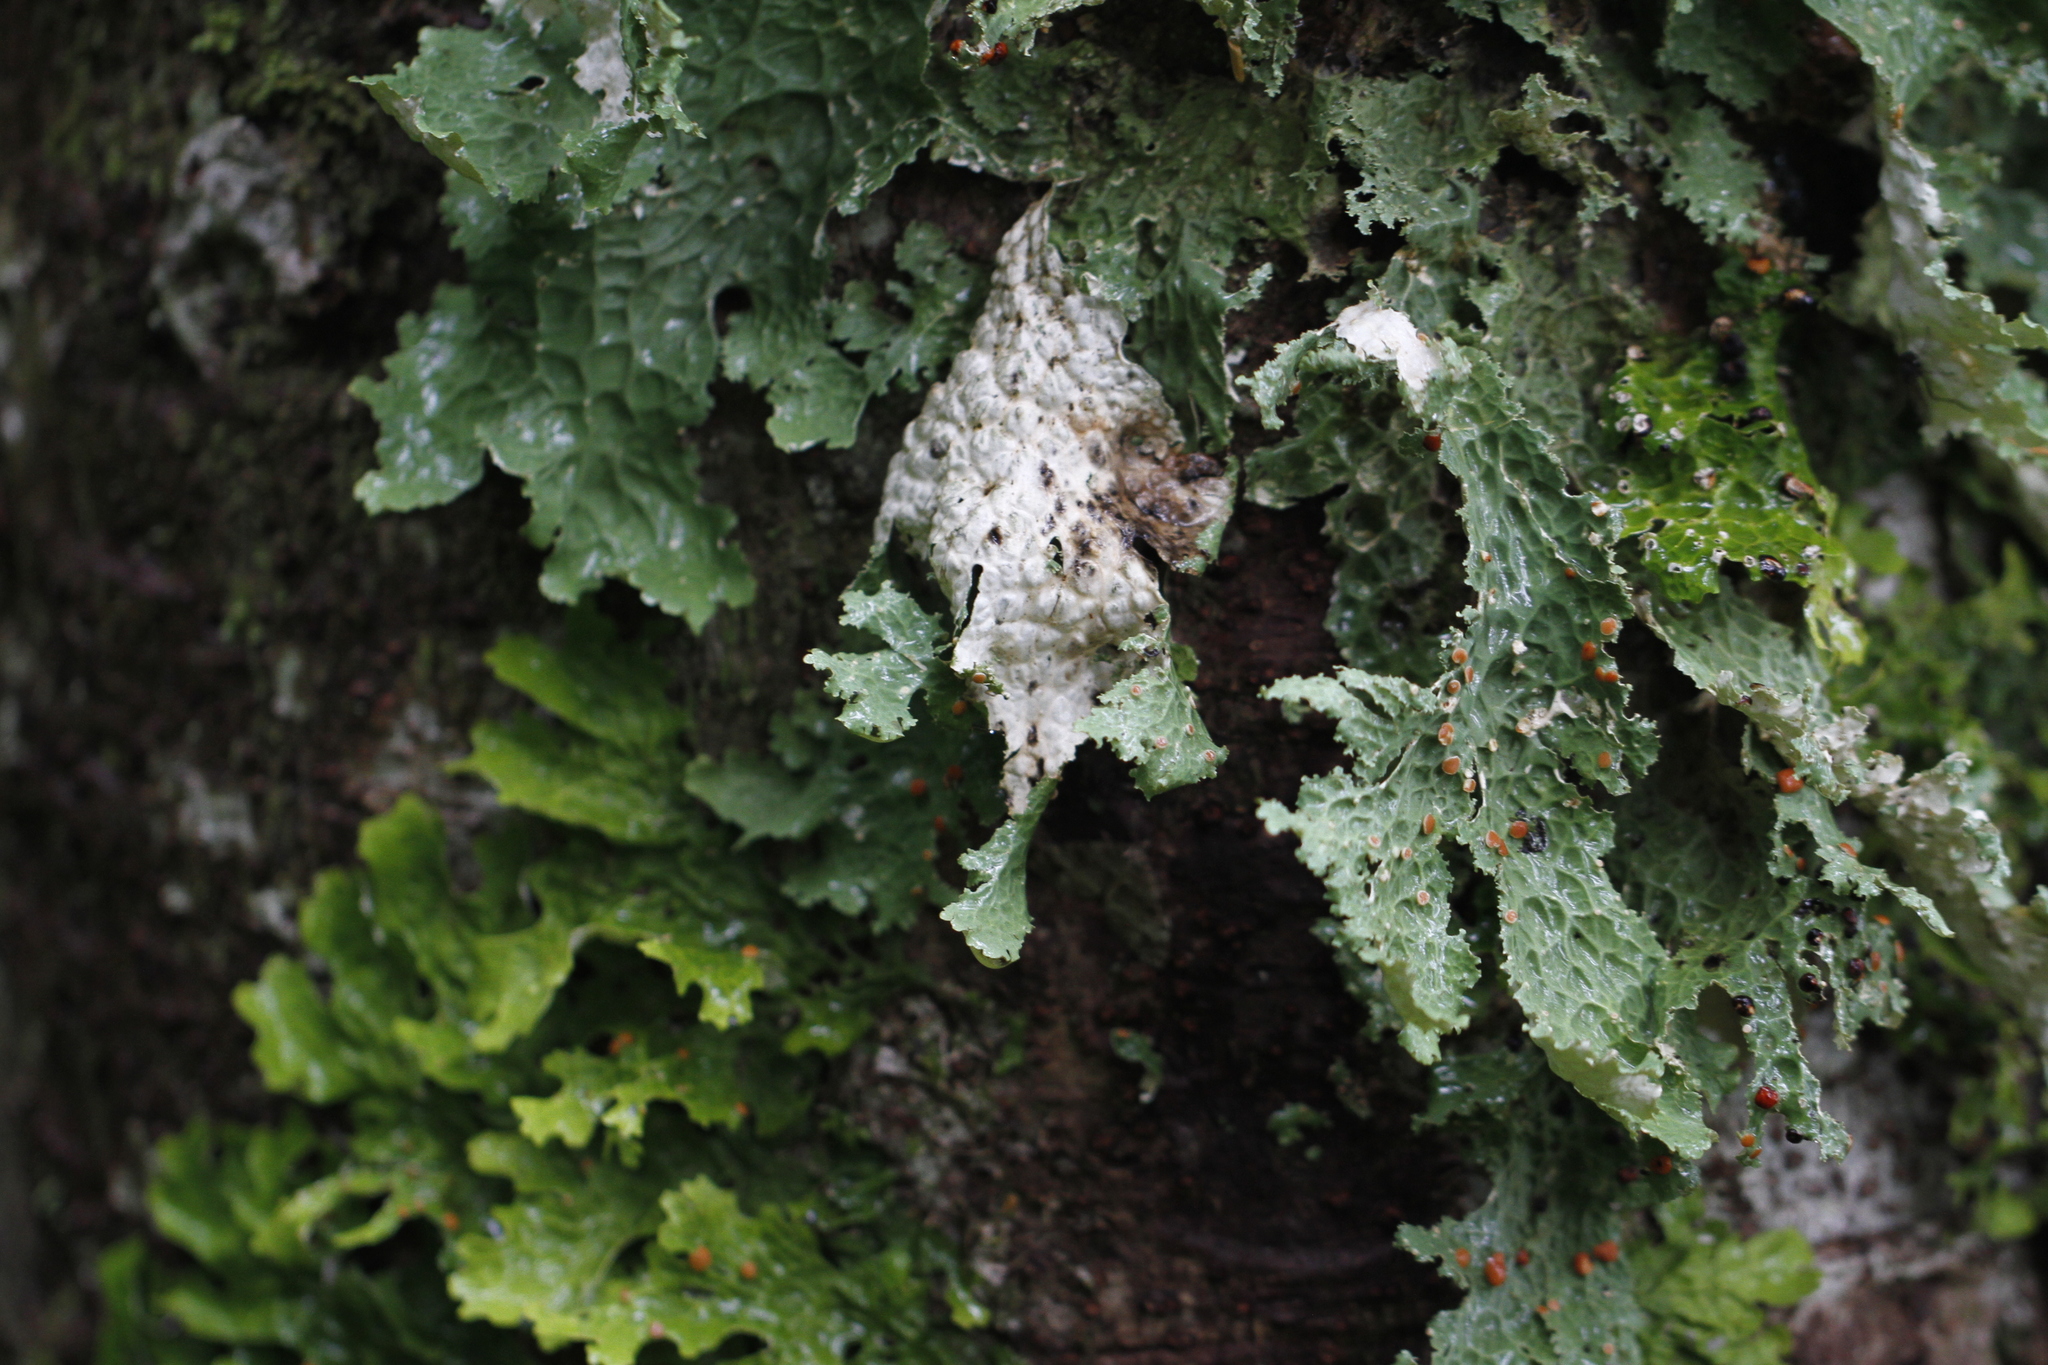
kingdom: Fungi
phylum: Ascomycota
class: Lecanoromycetes
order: Peltigerales
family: Lobariaceae
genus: Lobaria
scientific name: Lobaria oregana
